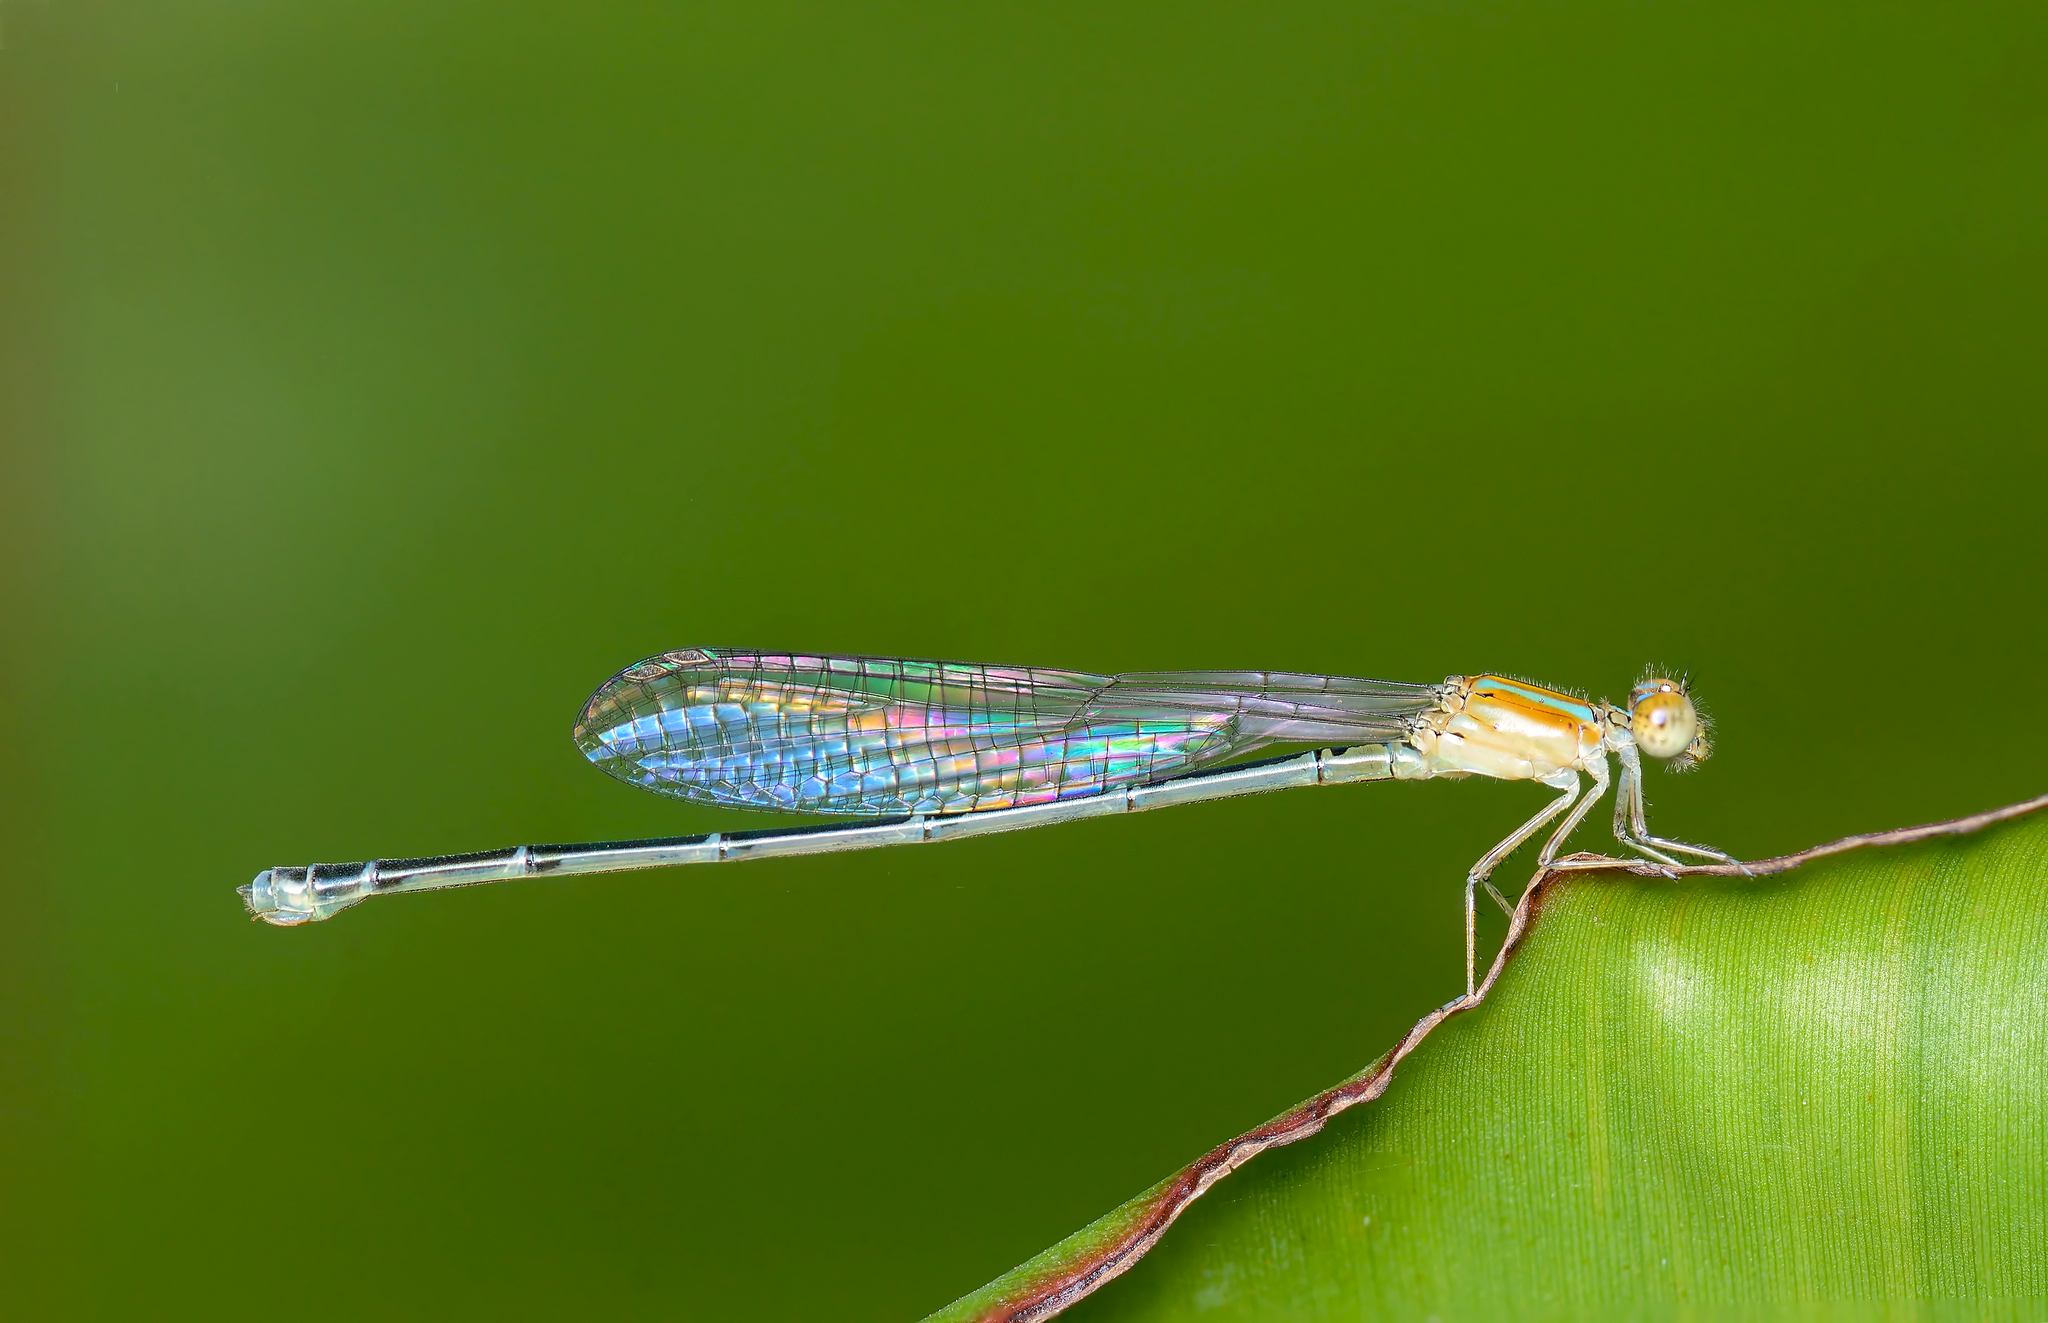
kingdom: Animalia
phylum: Arthropoda
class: Insecta
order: Odonata
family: Coenagrionidae
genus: Pseudagrion
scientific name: Pseudagrion microcephalum
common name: Blue riverdamsel
